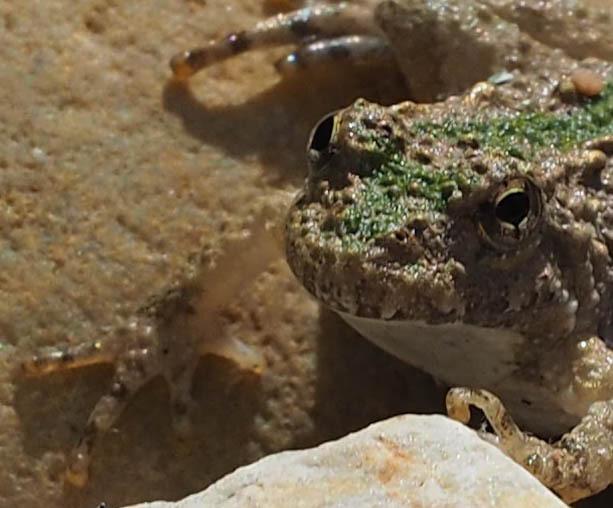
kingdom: Animalia
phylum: Chordata
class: Amphibia
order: Anura
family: Hylidae
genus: Acris
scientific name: Acris crepitans
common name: Northern cricket frog
